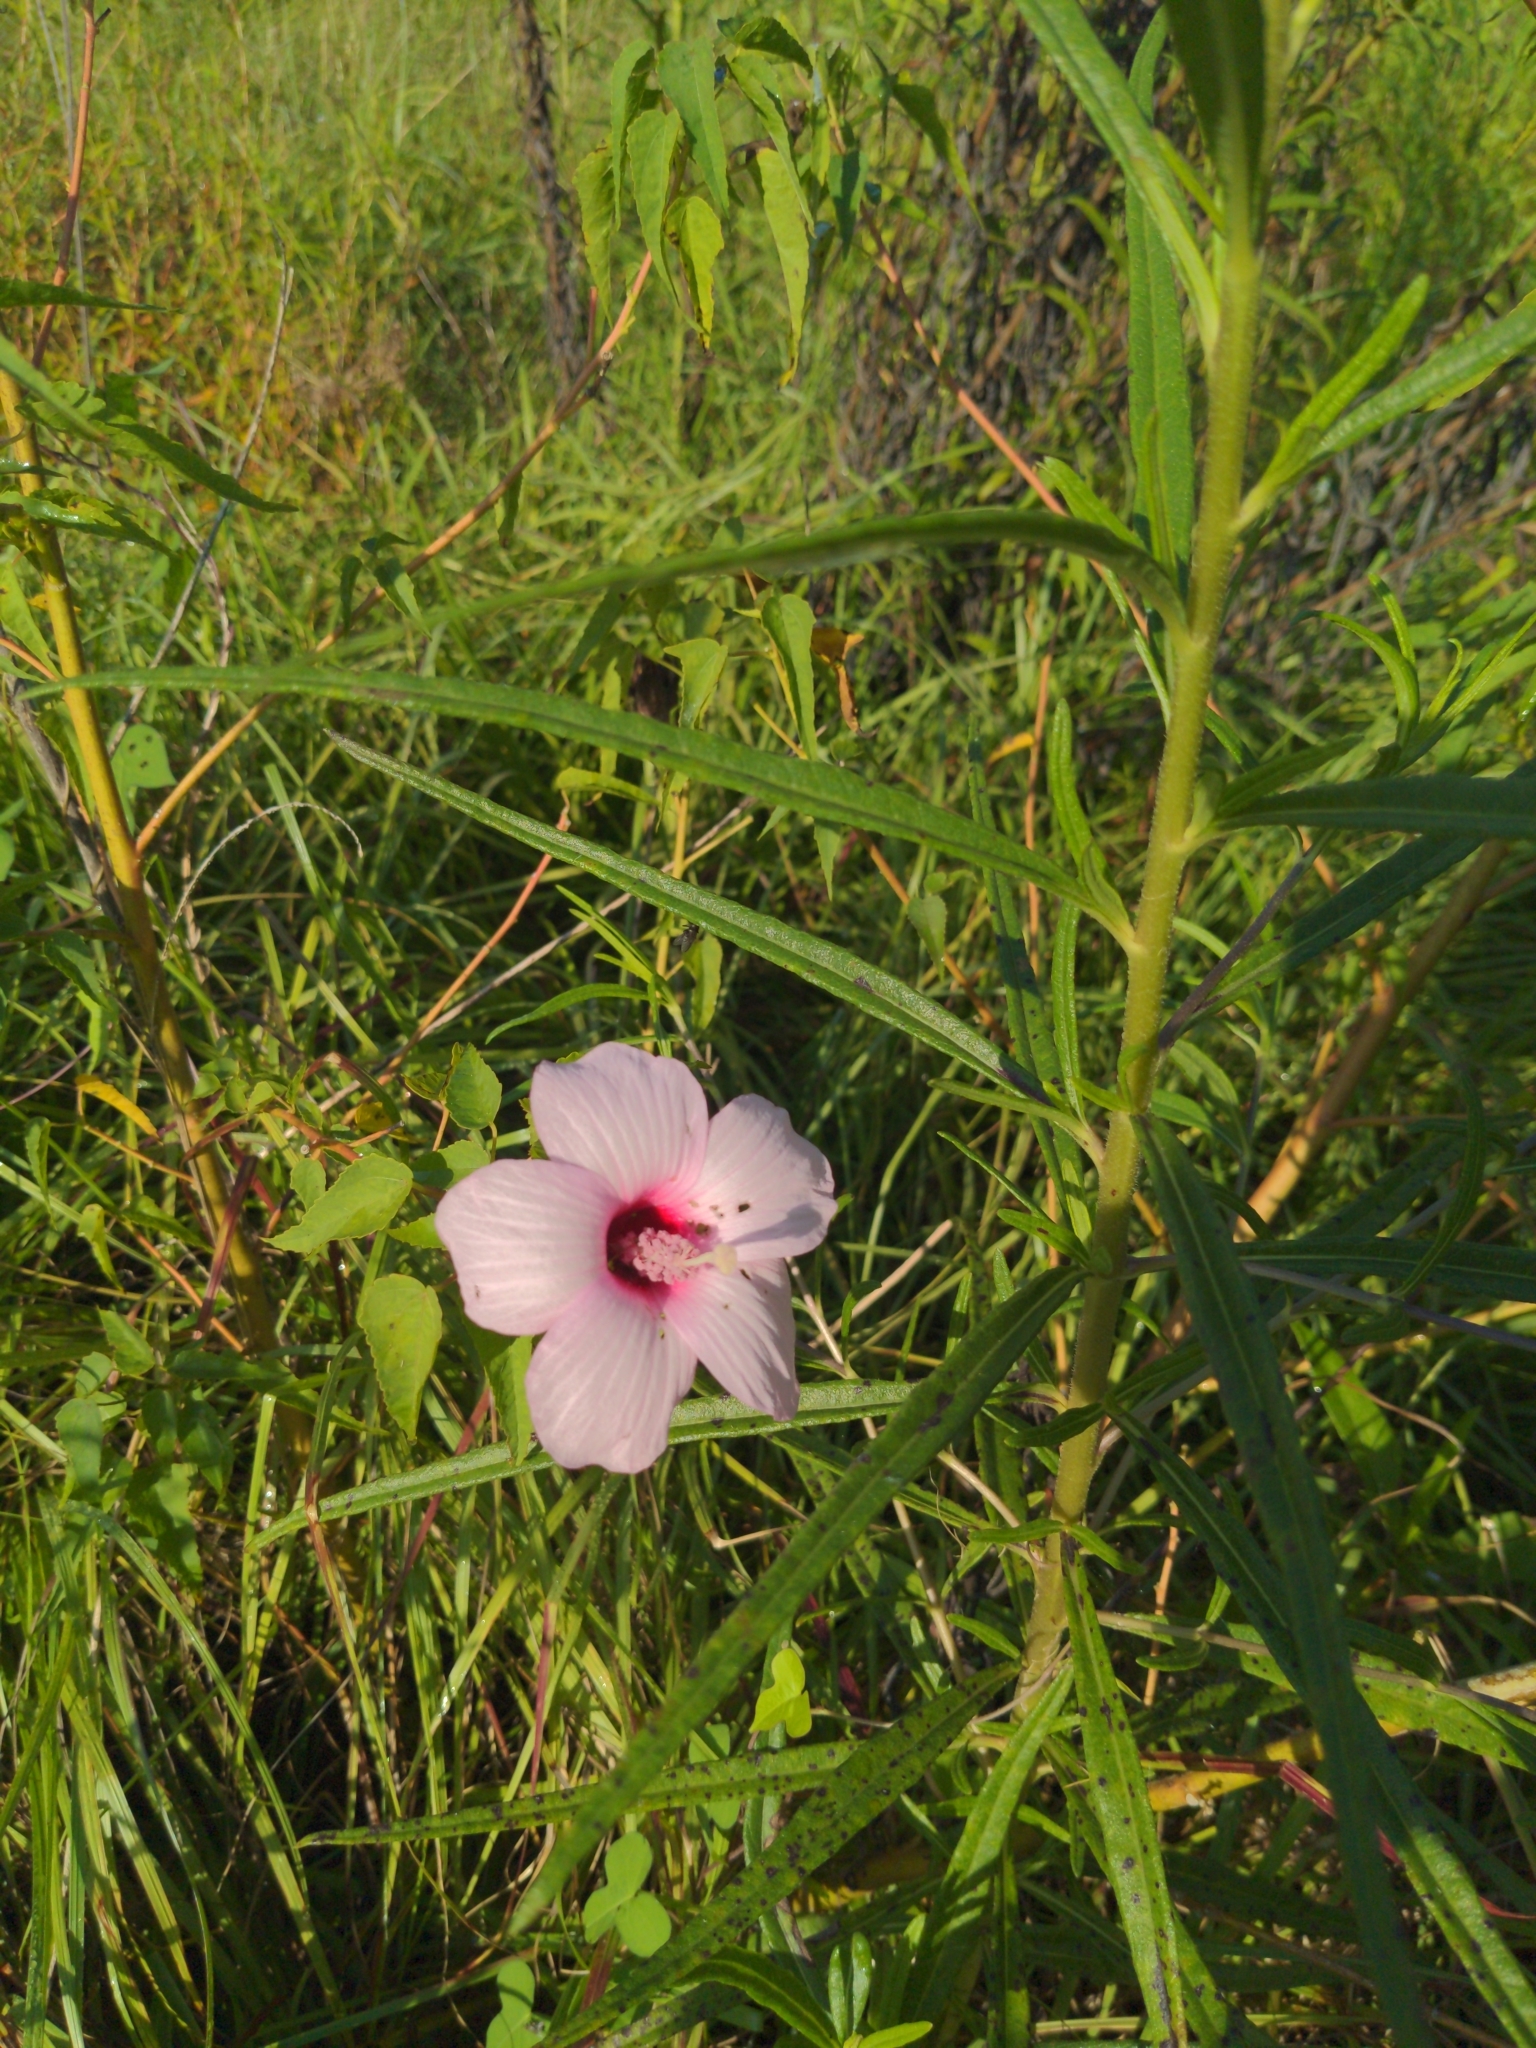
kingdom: Plantae
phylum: Tracheophyta
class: Magnoliopsida
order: Malvales
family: Malvaceae
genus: Hibiscus
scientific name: Hibiscus laevis
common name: Scarlet rose-mallow
